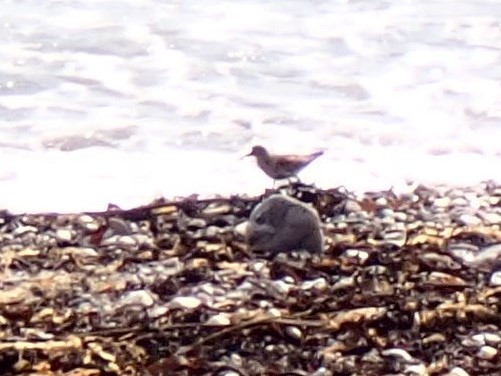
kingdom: Animalia
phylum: Chordata
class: Aves
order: Charadriiformes
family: Scolopacidae
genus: Calidris
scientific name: Calidris alpina
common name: Dunlin
